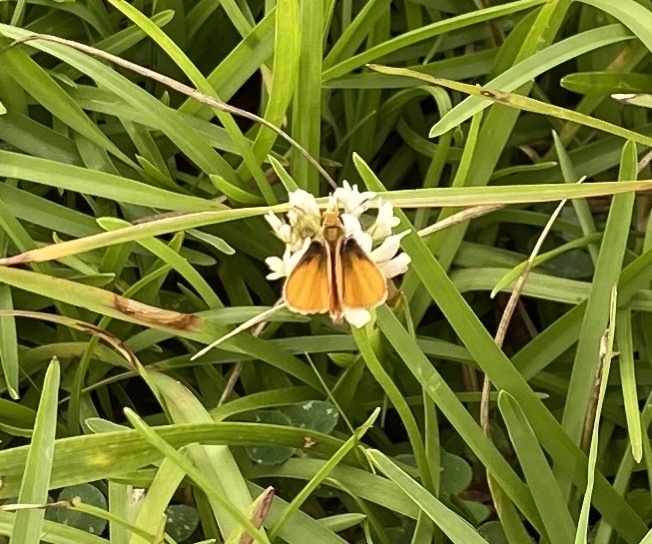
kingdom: Animalia
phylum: Arthropoda
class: Insecta
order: Lepidoptera
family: Hesperiidae
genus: Copaeodes
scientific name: Copaeodes minima
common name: Southern skipperling
